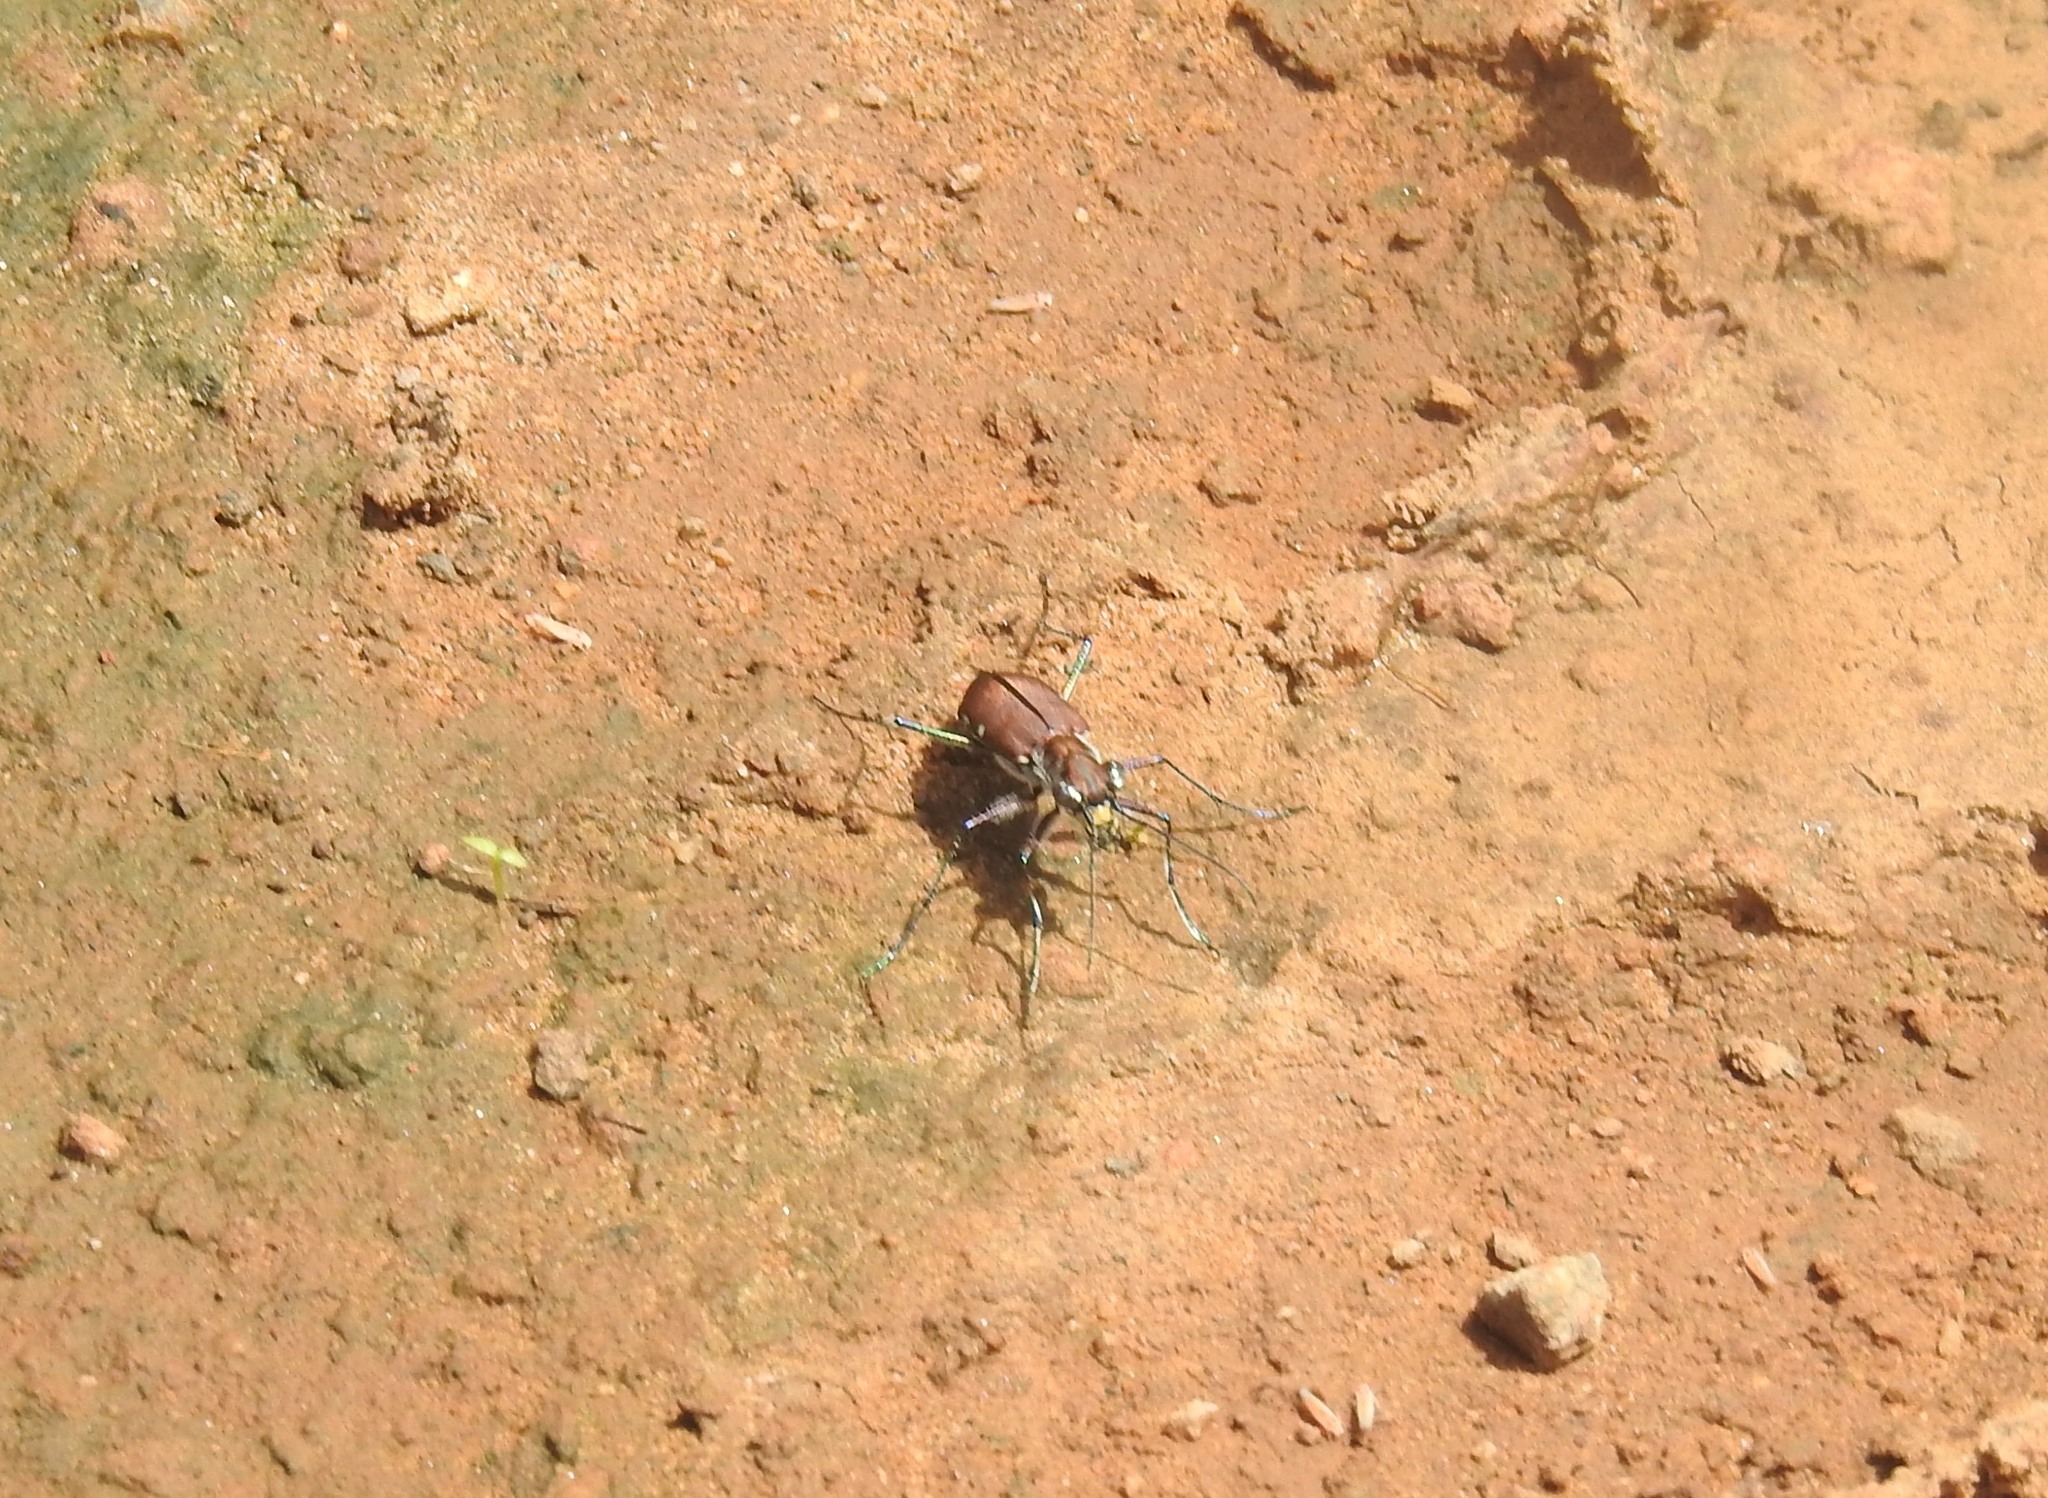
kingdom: Animalia
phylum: Arthropoda
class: Insecta
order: Coleoptera
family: Carabidae
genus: Cicindela
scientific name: Cicindela funerea
